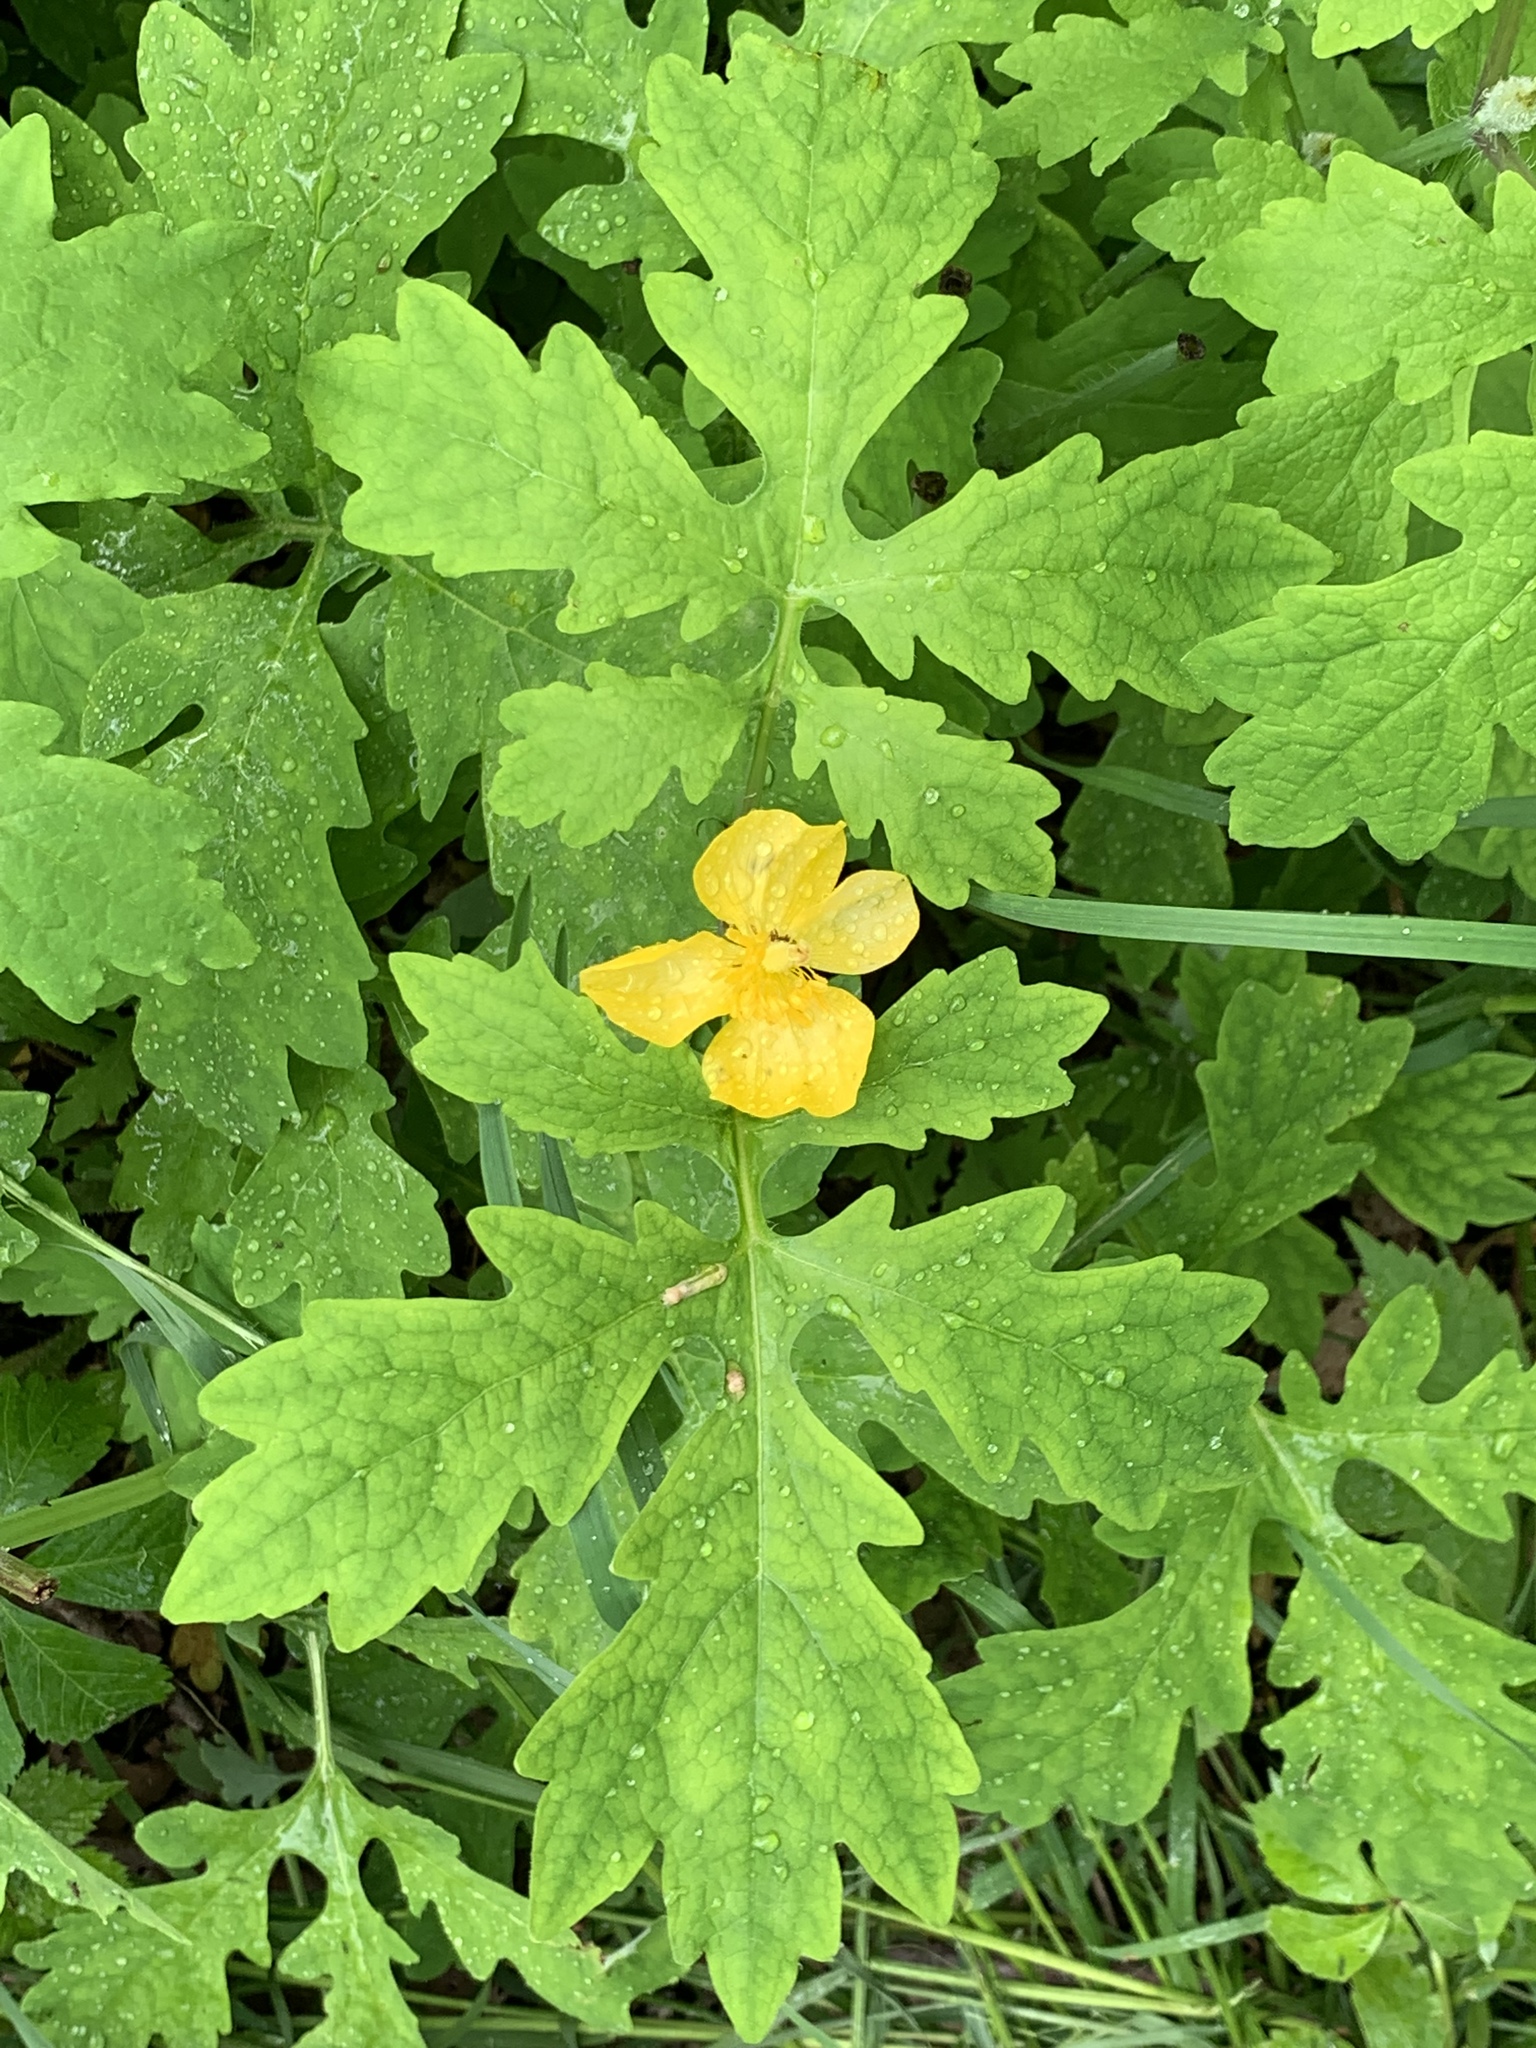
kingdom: Plantae
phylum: Tracheophyta
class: Magnoliopsida
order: Ranunculales
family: Papaveraceae
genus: Stylophorum
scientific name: Stylophorum diphyllum
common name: Celandine poppy
